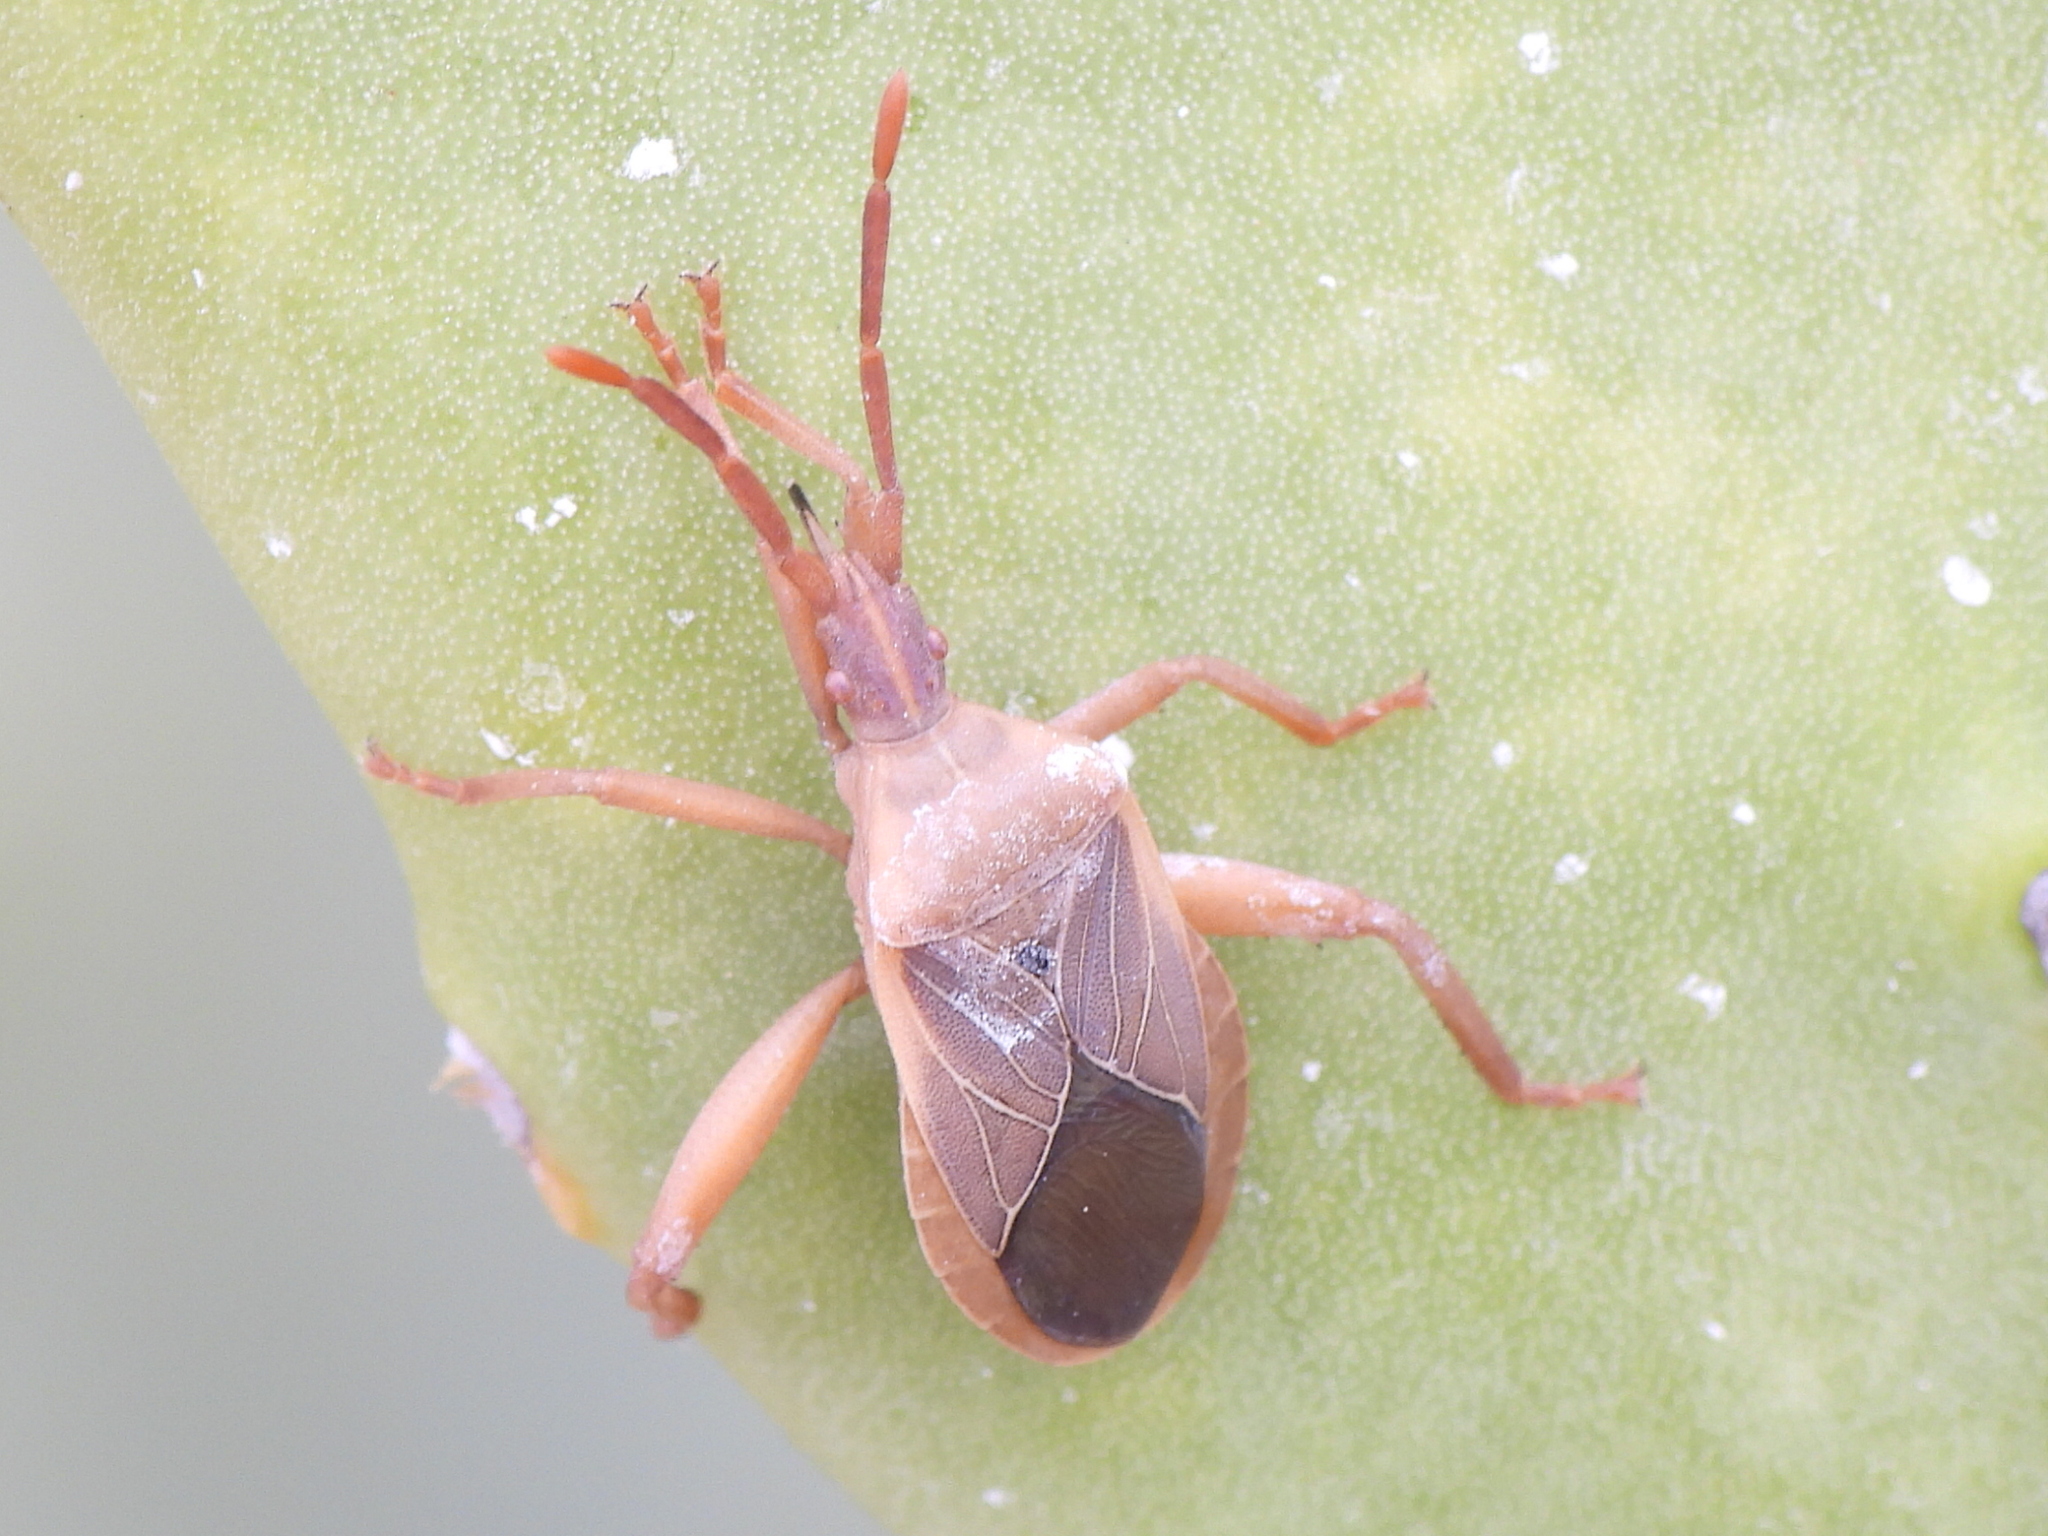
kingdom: Animalia
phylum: Arthropoda
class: Insecta
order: Hemiptera
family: Coreidae
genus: Chelinidea
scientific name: Chelinidea vittiger
